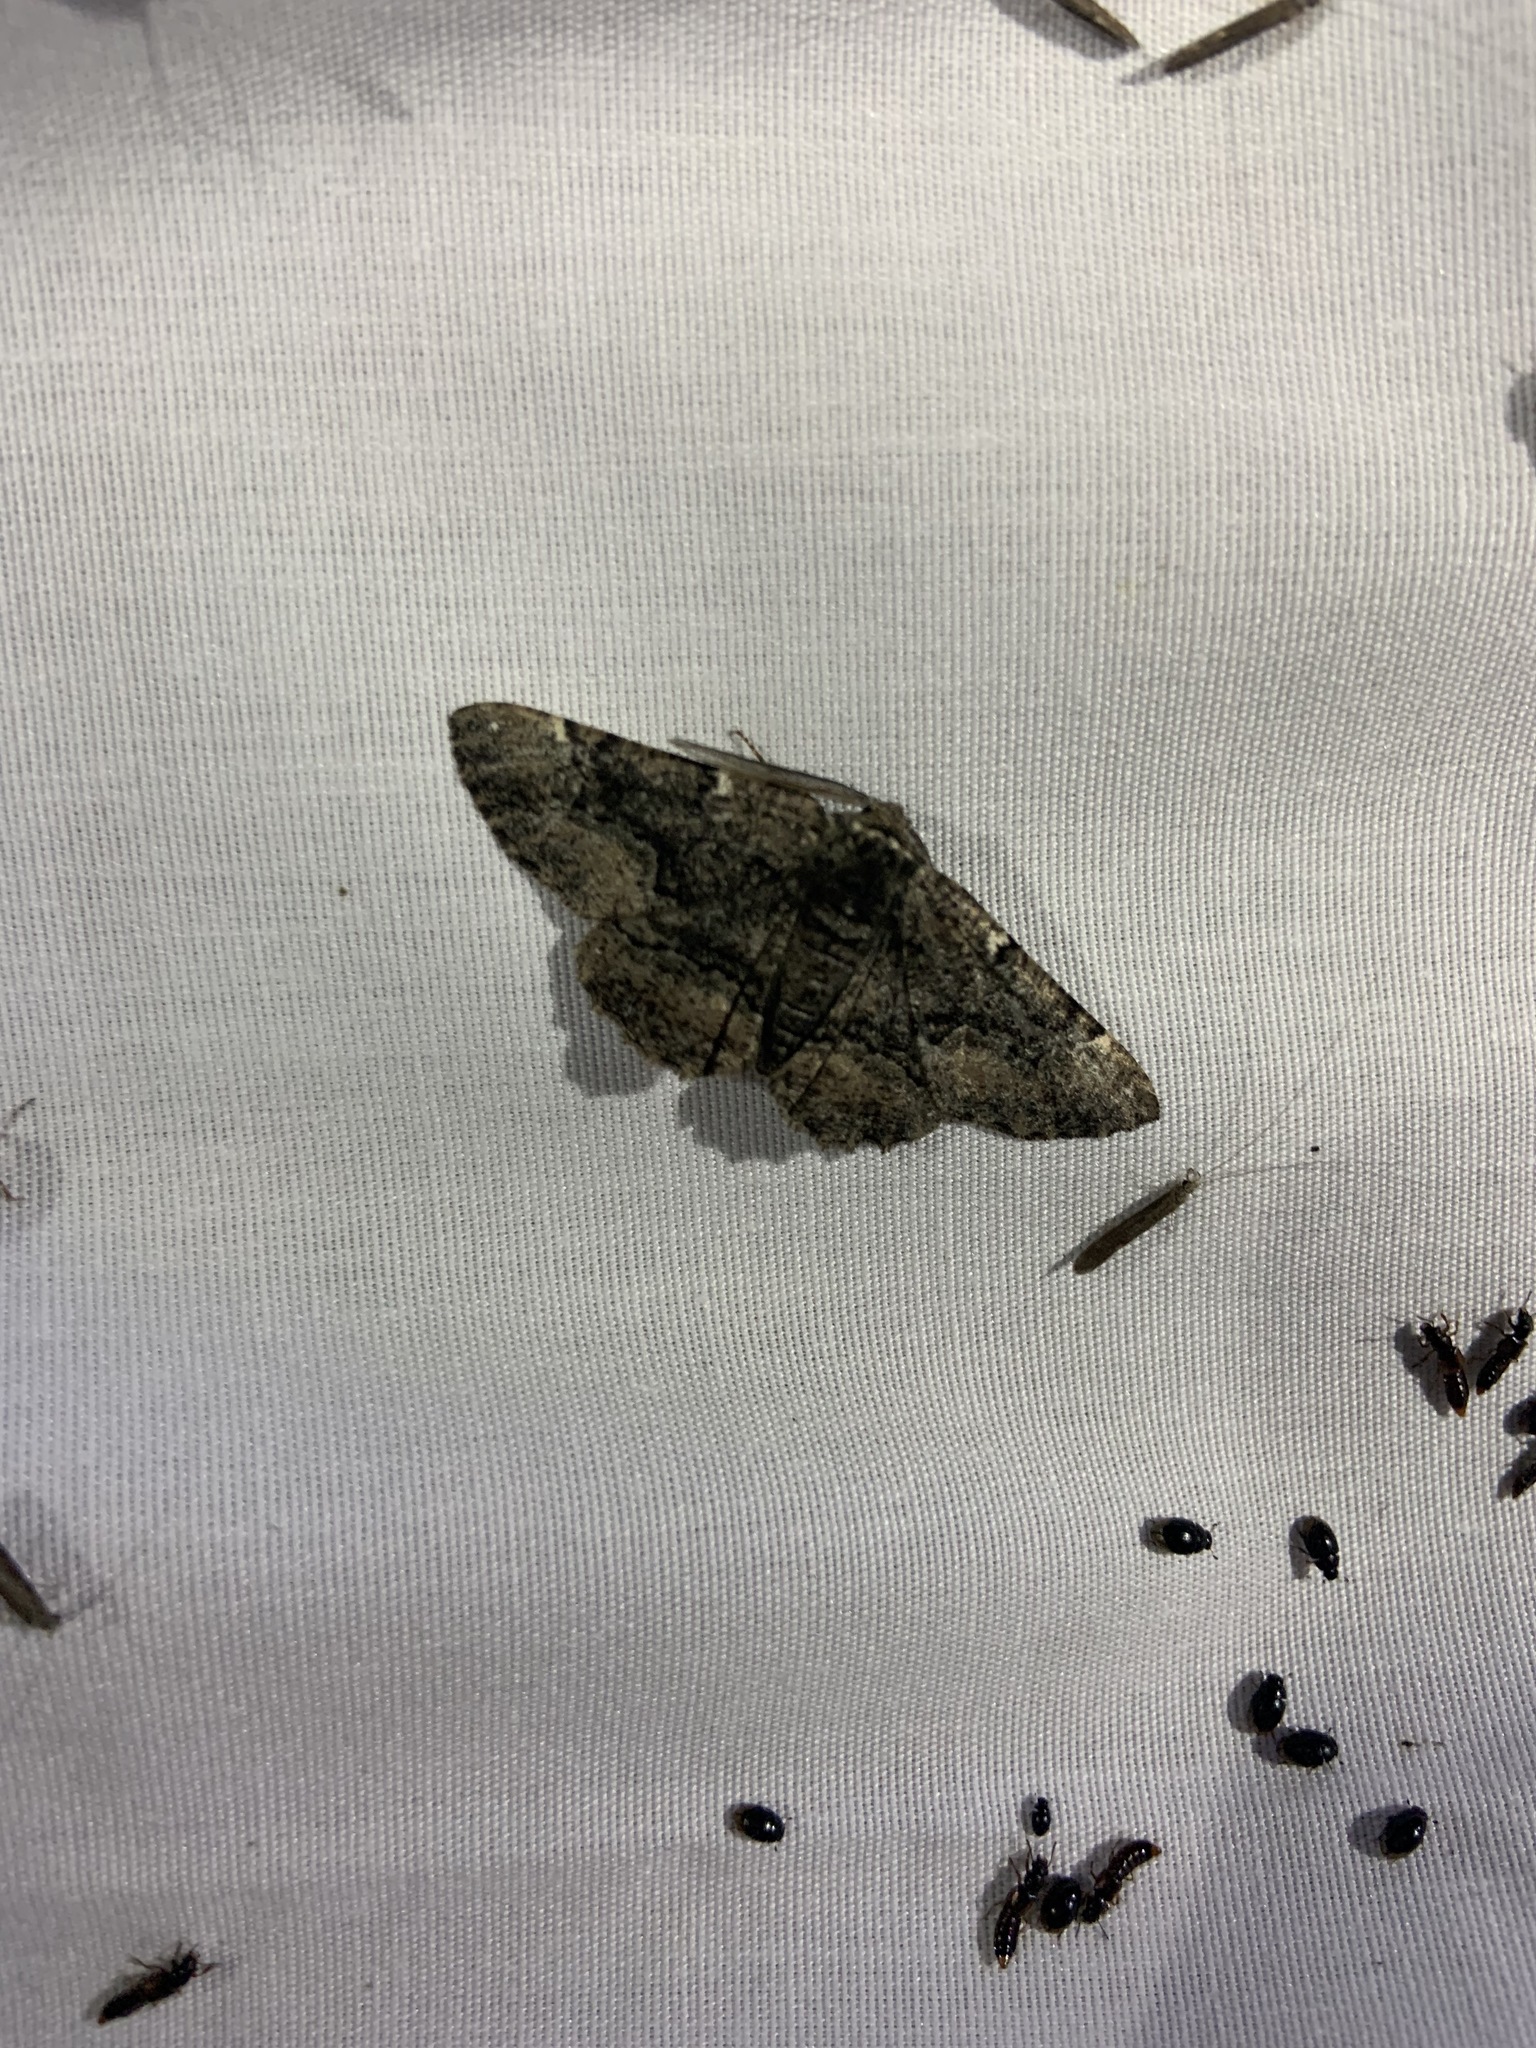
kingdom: Animalia
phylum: Arthropoda
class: Insecta
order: Lepidoptera
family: Geometridae
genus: Phaeoura
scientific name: Phaeoura quernaria
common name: Oak beauty
